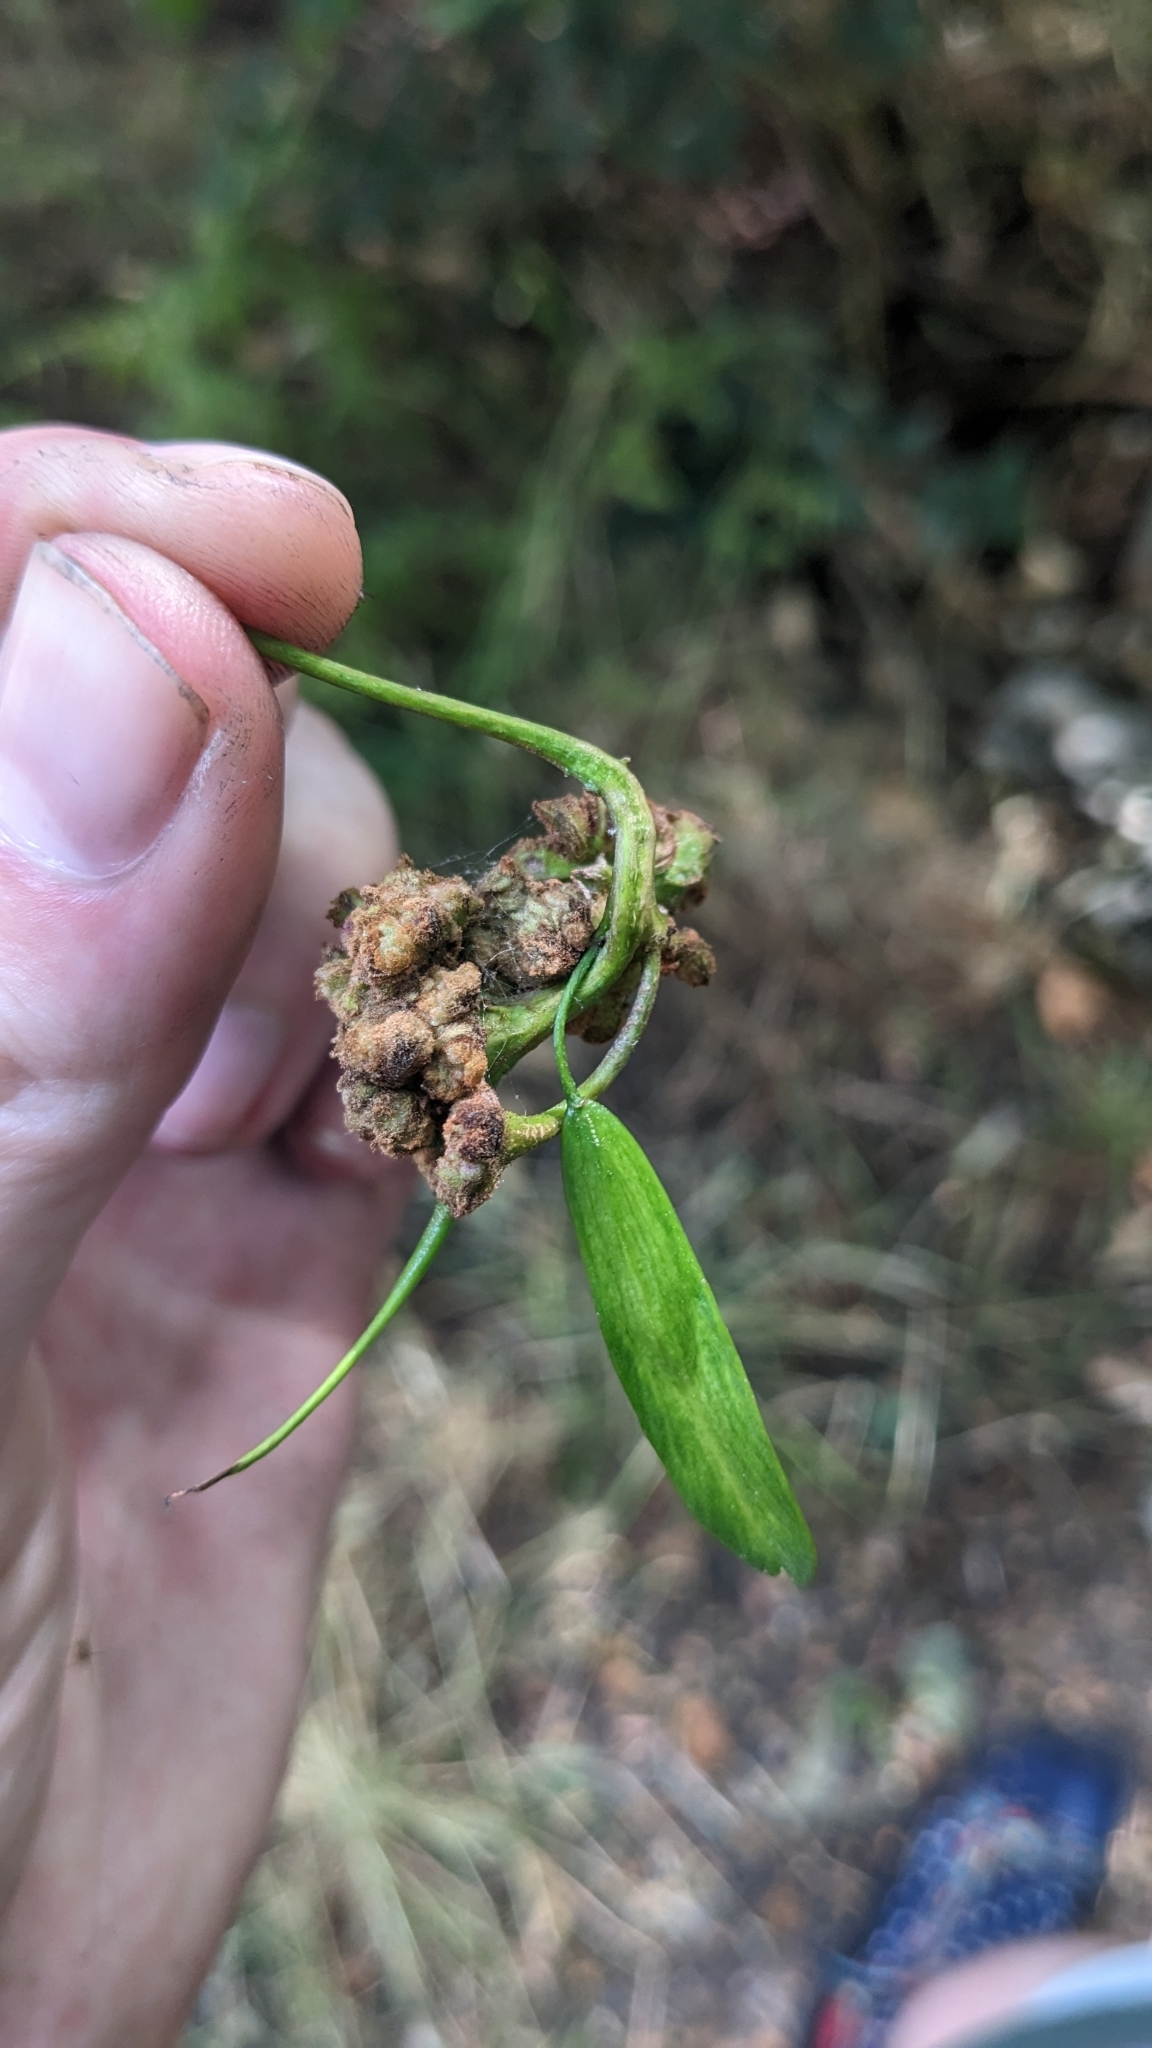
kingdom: Animalia
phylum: Arthropoda
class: Arachnida
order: Trombidiformes
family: Eriophyidae
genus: Aceria
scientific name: Aceria fraxinivora
